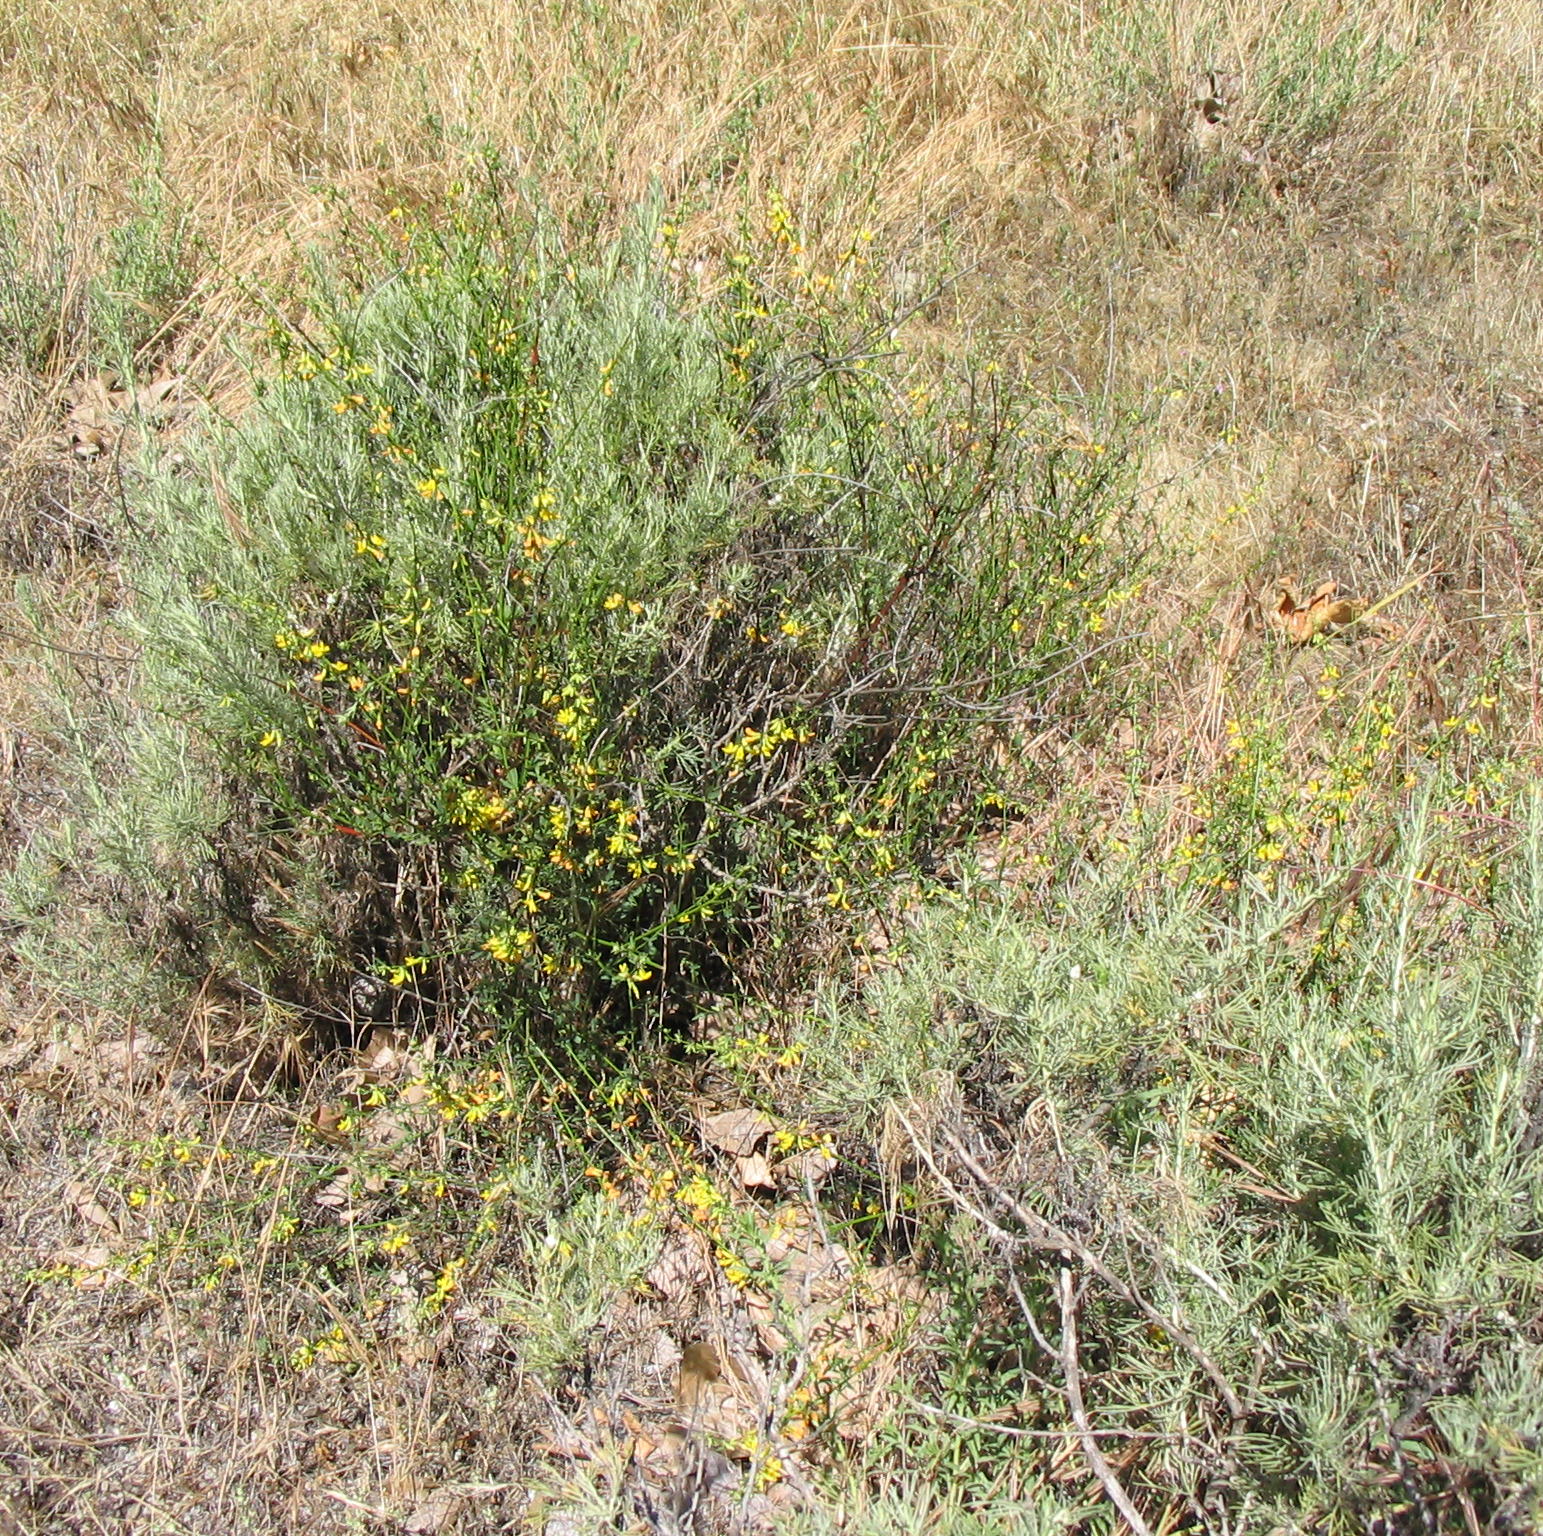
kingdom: Plantae
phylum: Tracheophyta
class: Magnoliopsida
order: Fabales
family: Fabaceae
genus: Acmispon
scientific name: Acmispon glaber
